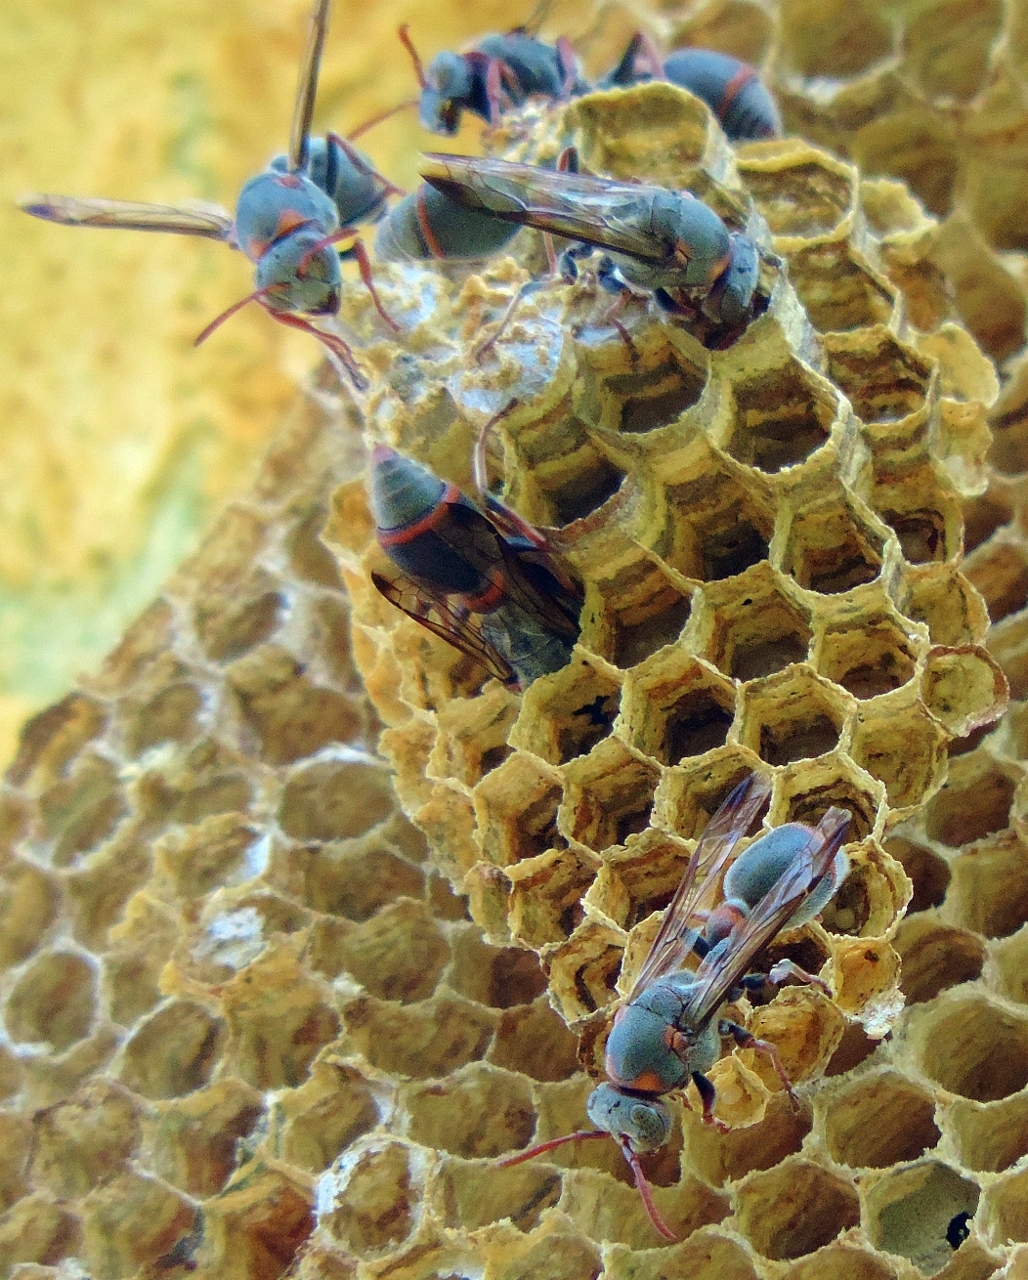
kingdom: Animalia
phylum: Arthropoda
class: Insecta
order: Hymenoptera
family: Vespidae
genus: Ropalidia
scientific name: Ropalidia unidentata
